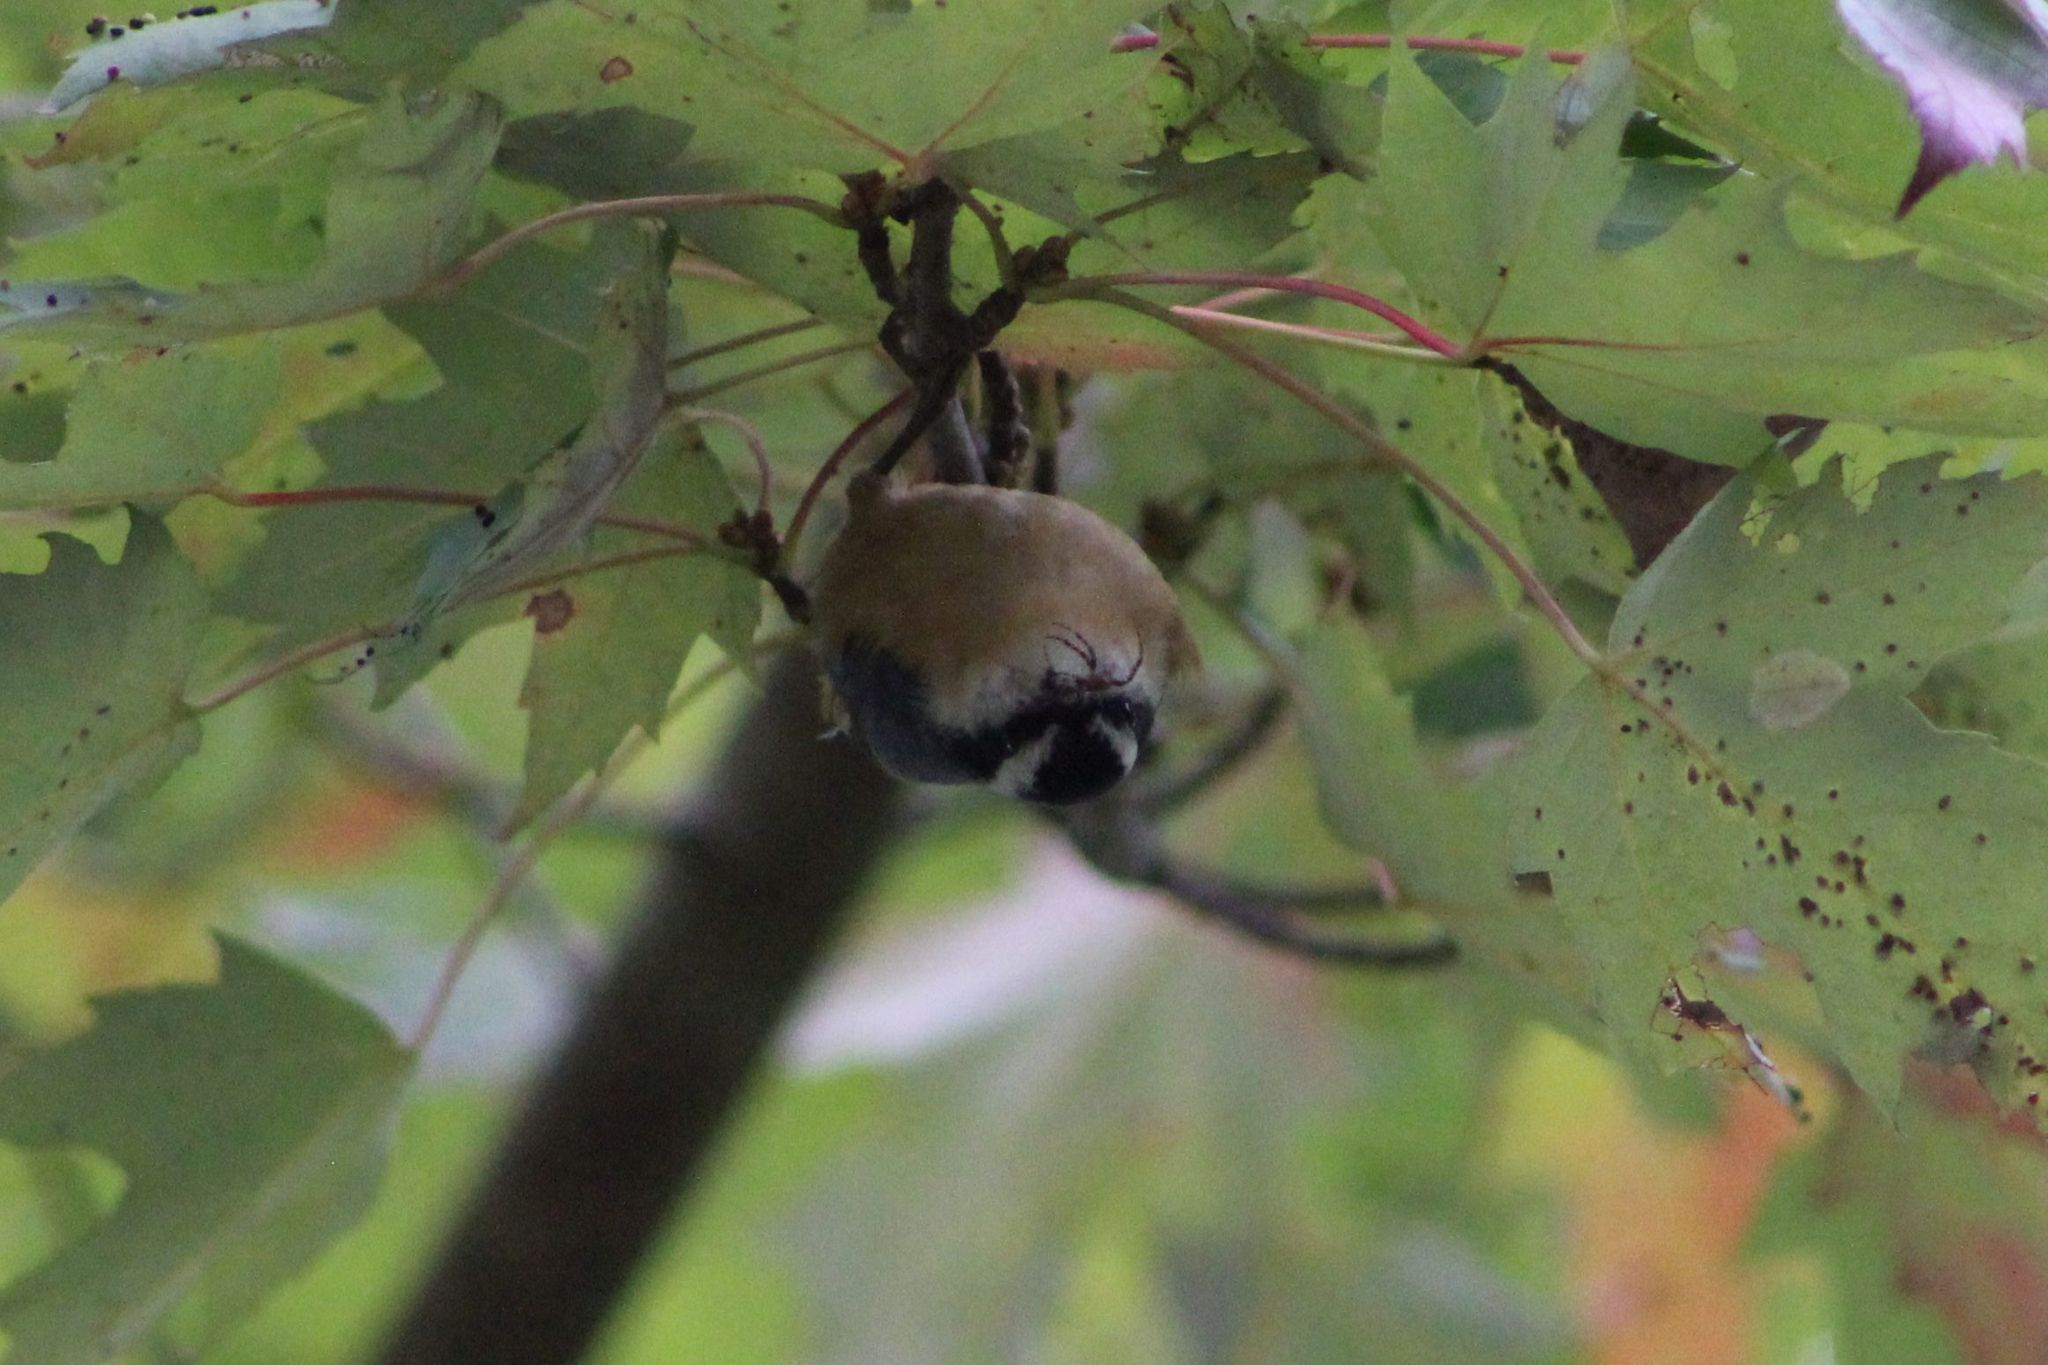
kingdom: Animalia
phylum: Chordata
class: Aves
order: Passeriformes
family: Sittidae
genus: Sitta
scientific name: Sitta canadensis
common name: Red-breasted nuthatch
